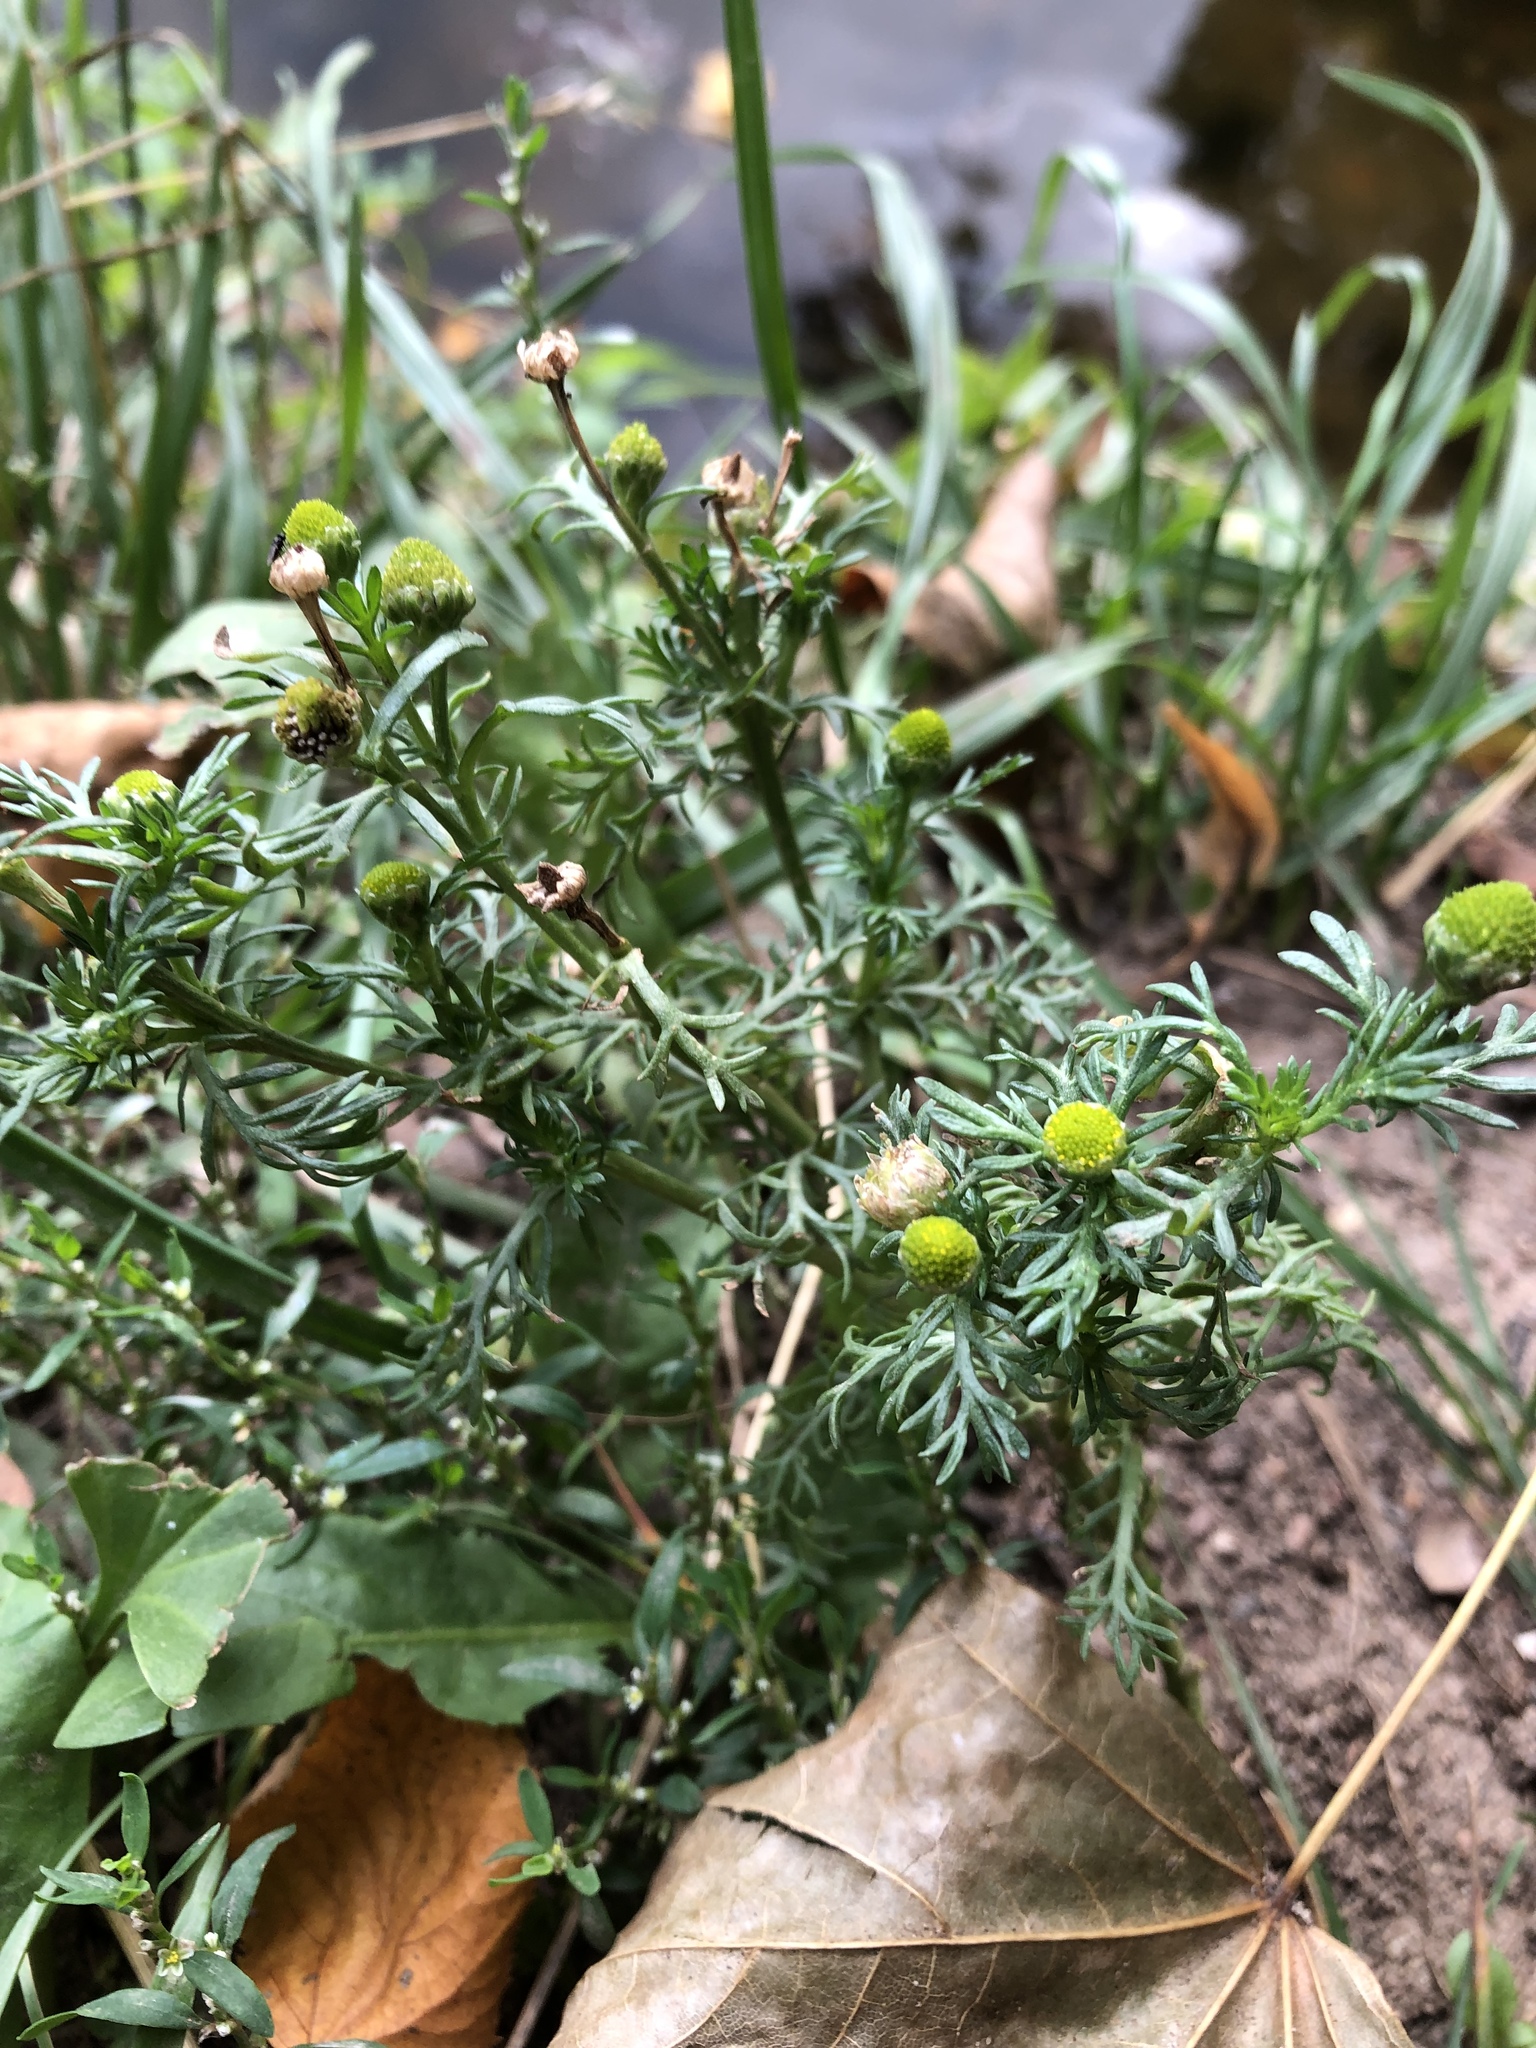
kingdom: Plantae
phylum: Tracheophyta
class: Magnoliopsida
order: Asterales
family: Asteraceae
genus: Matricaria
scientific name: Matricaria discoidea
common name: Disc mayweed
